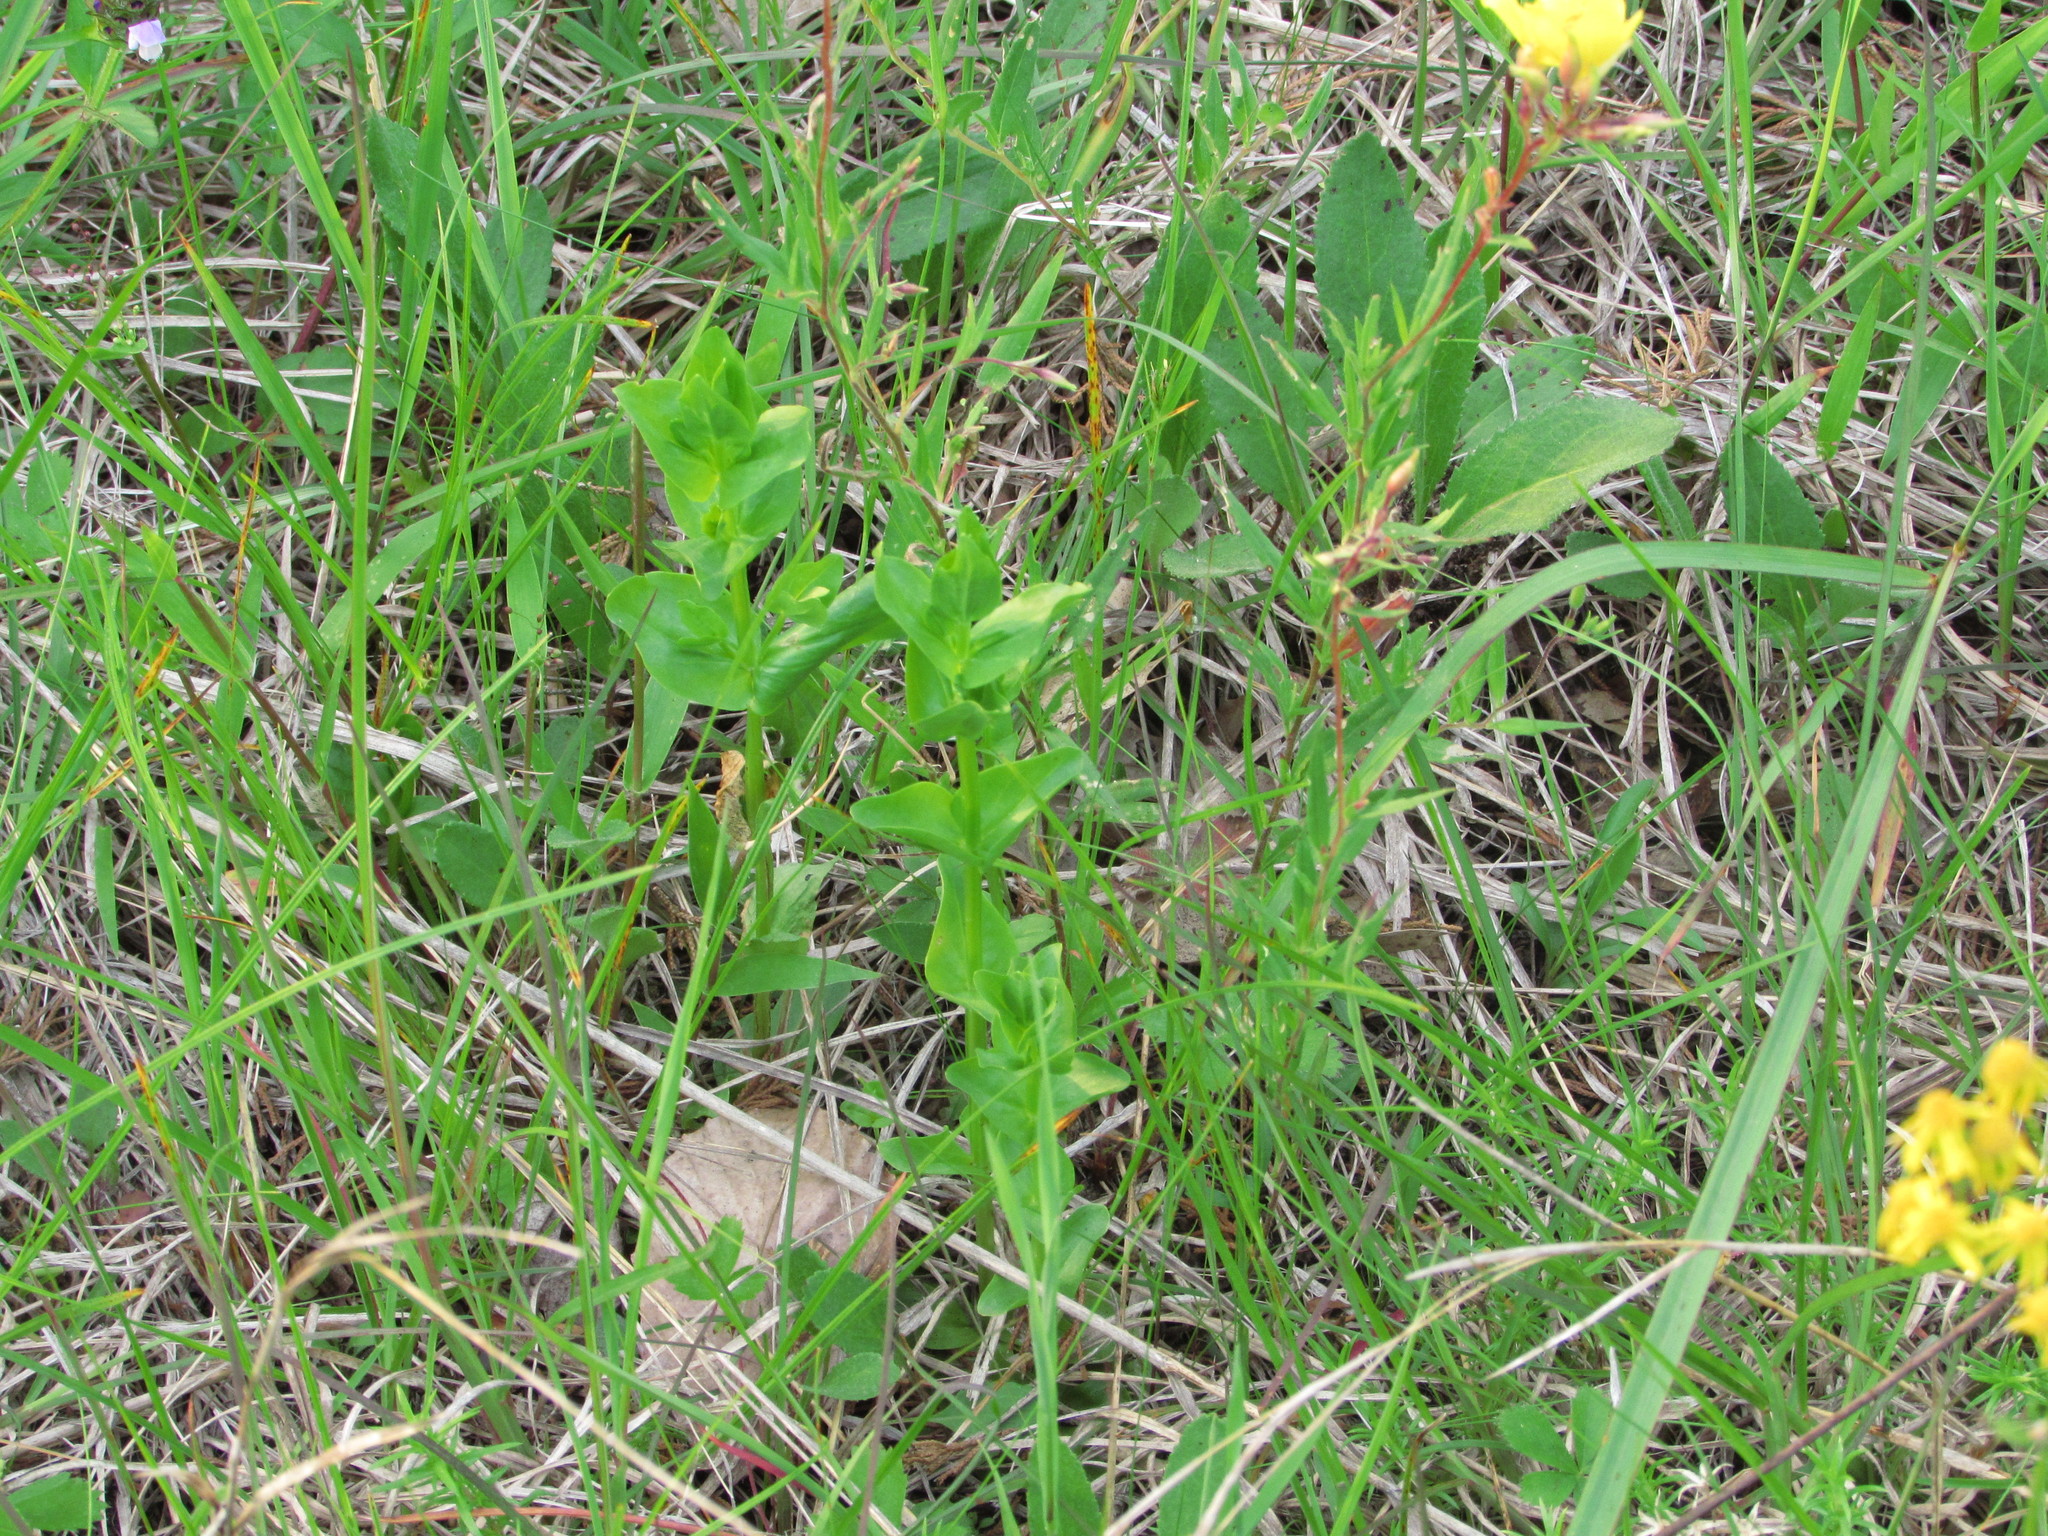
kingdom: Plantae
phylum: Tracheophyta
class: Magnoliopsida
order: Gentianales
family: Gentianaceae
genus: Sabatia
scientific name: Sabatia angularis
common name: Rose-pink
